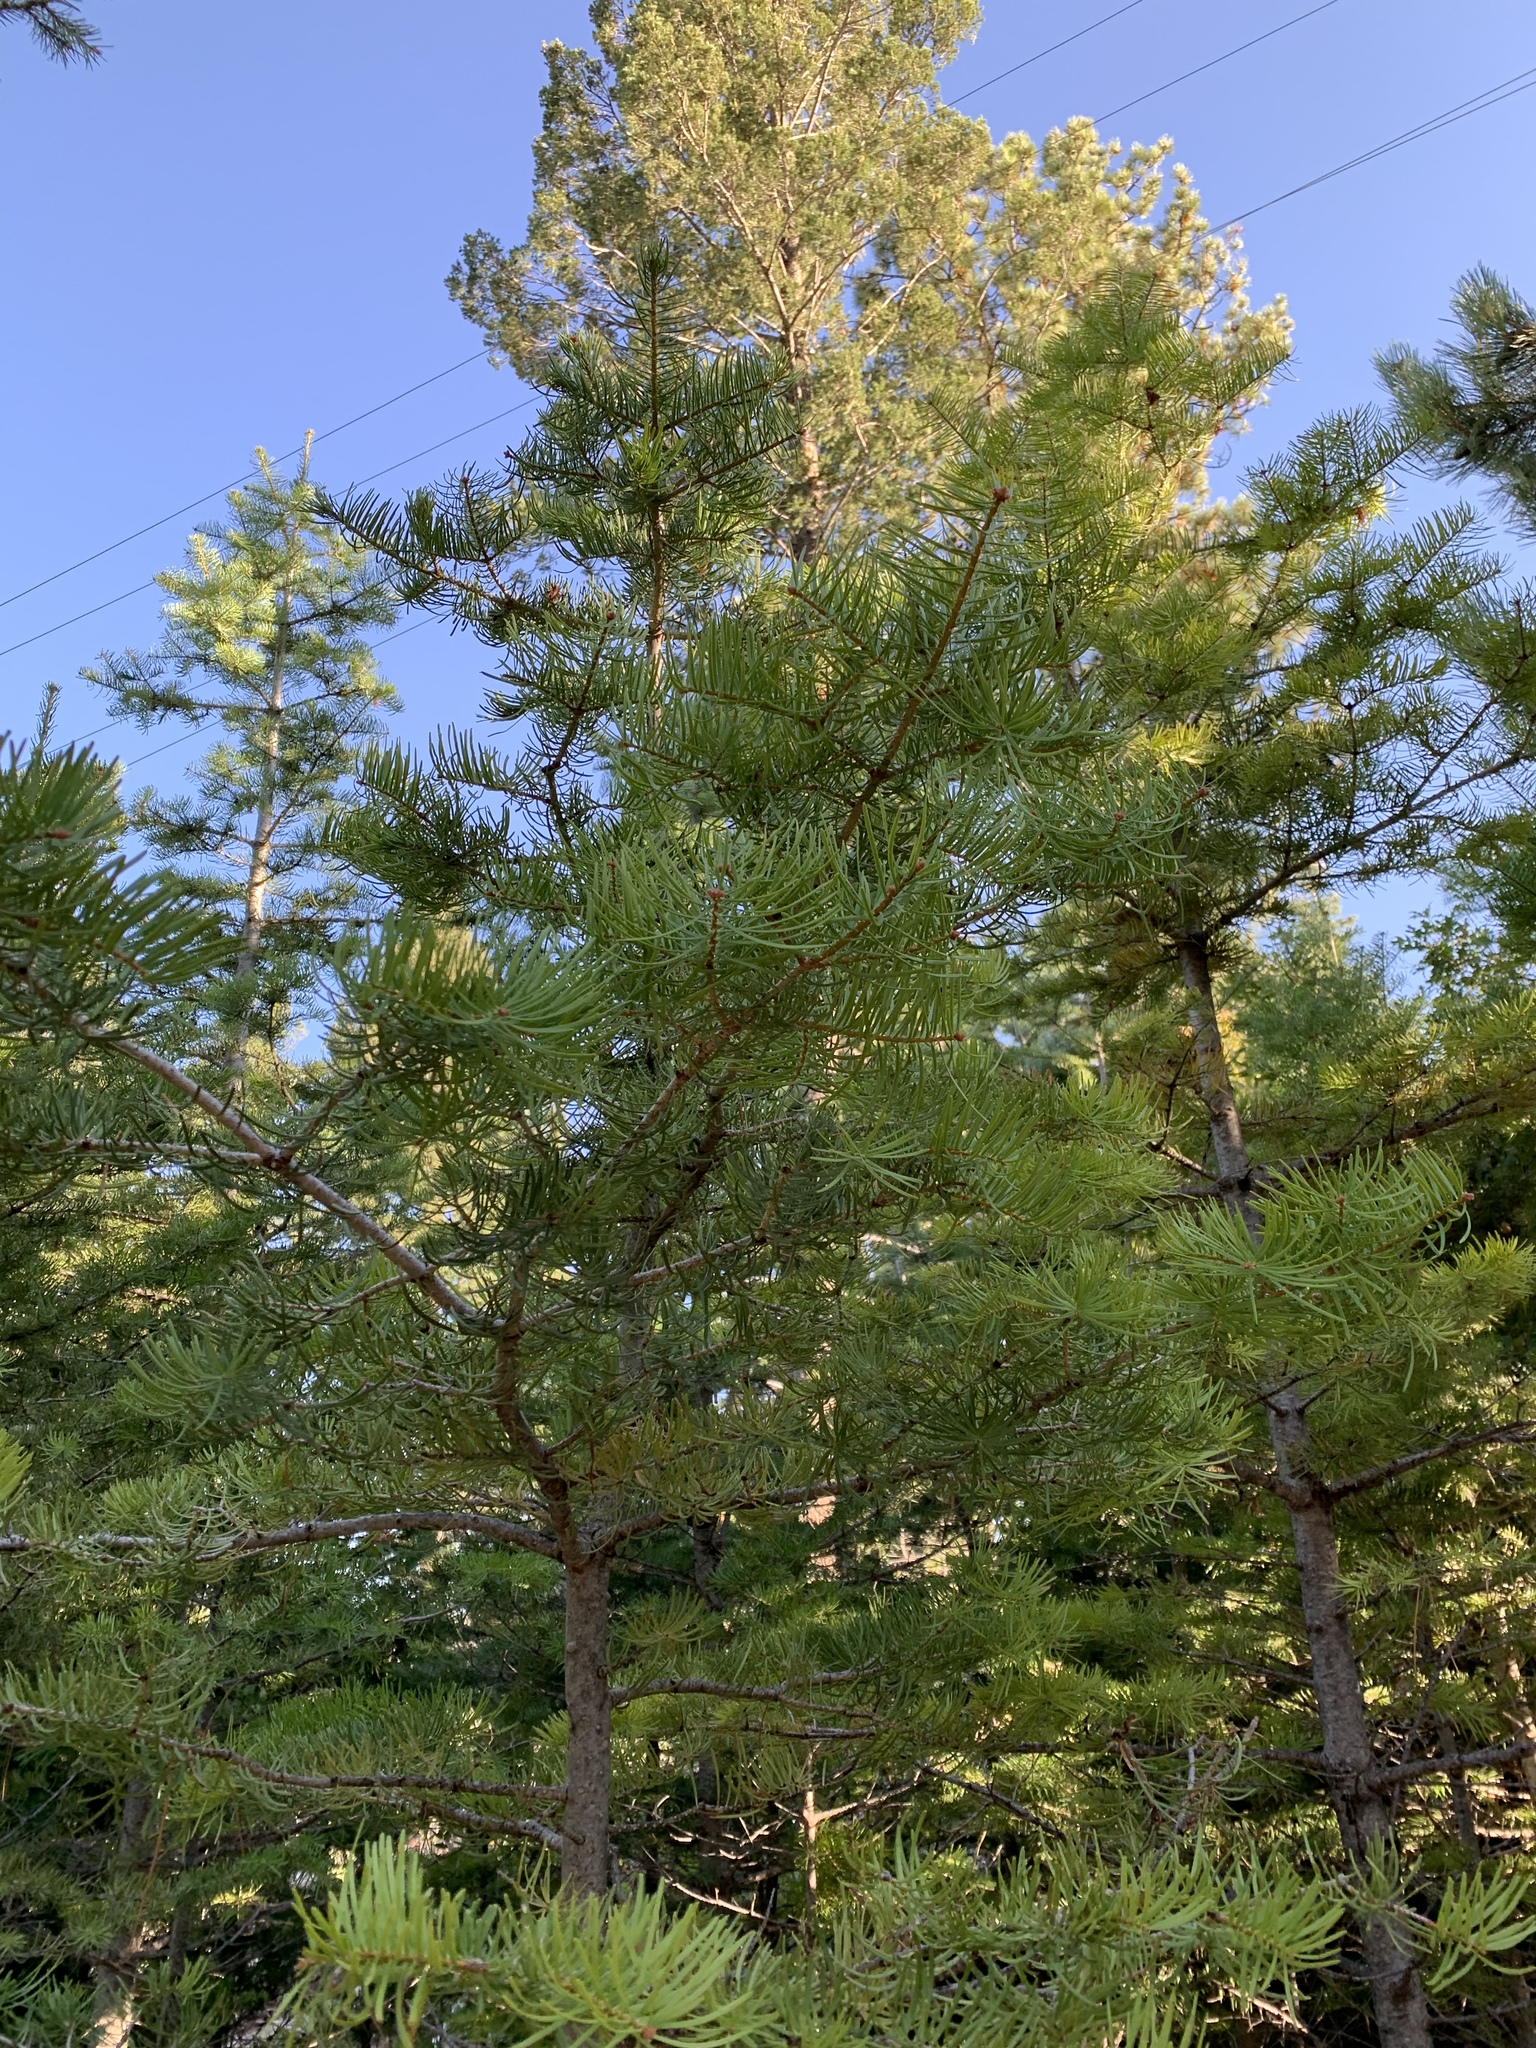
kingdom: Plantae
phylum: Tracheophyta
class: Pinopsida
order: Pinales
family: Pinaceae
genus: Abies
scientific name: Abies concolor
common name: Colorado fir
